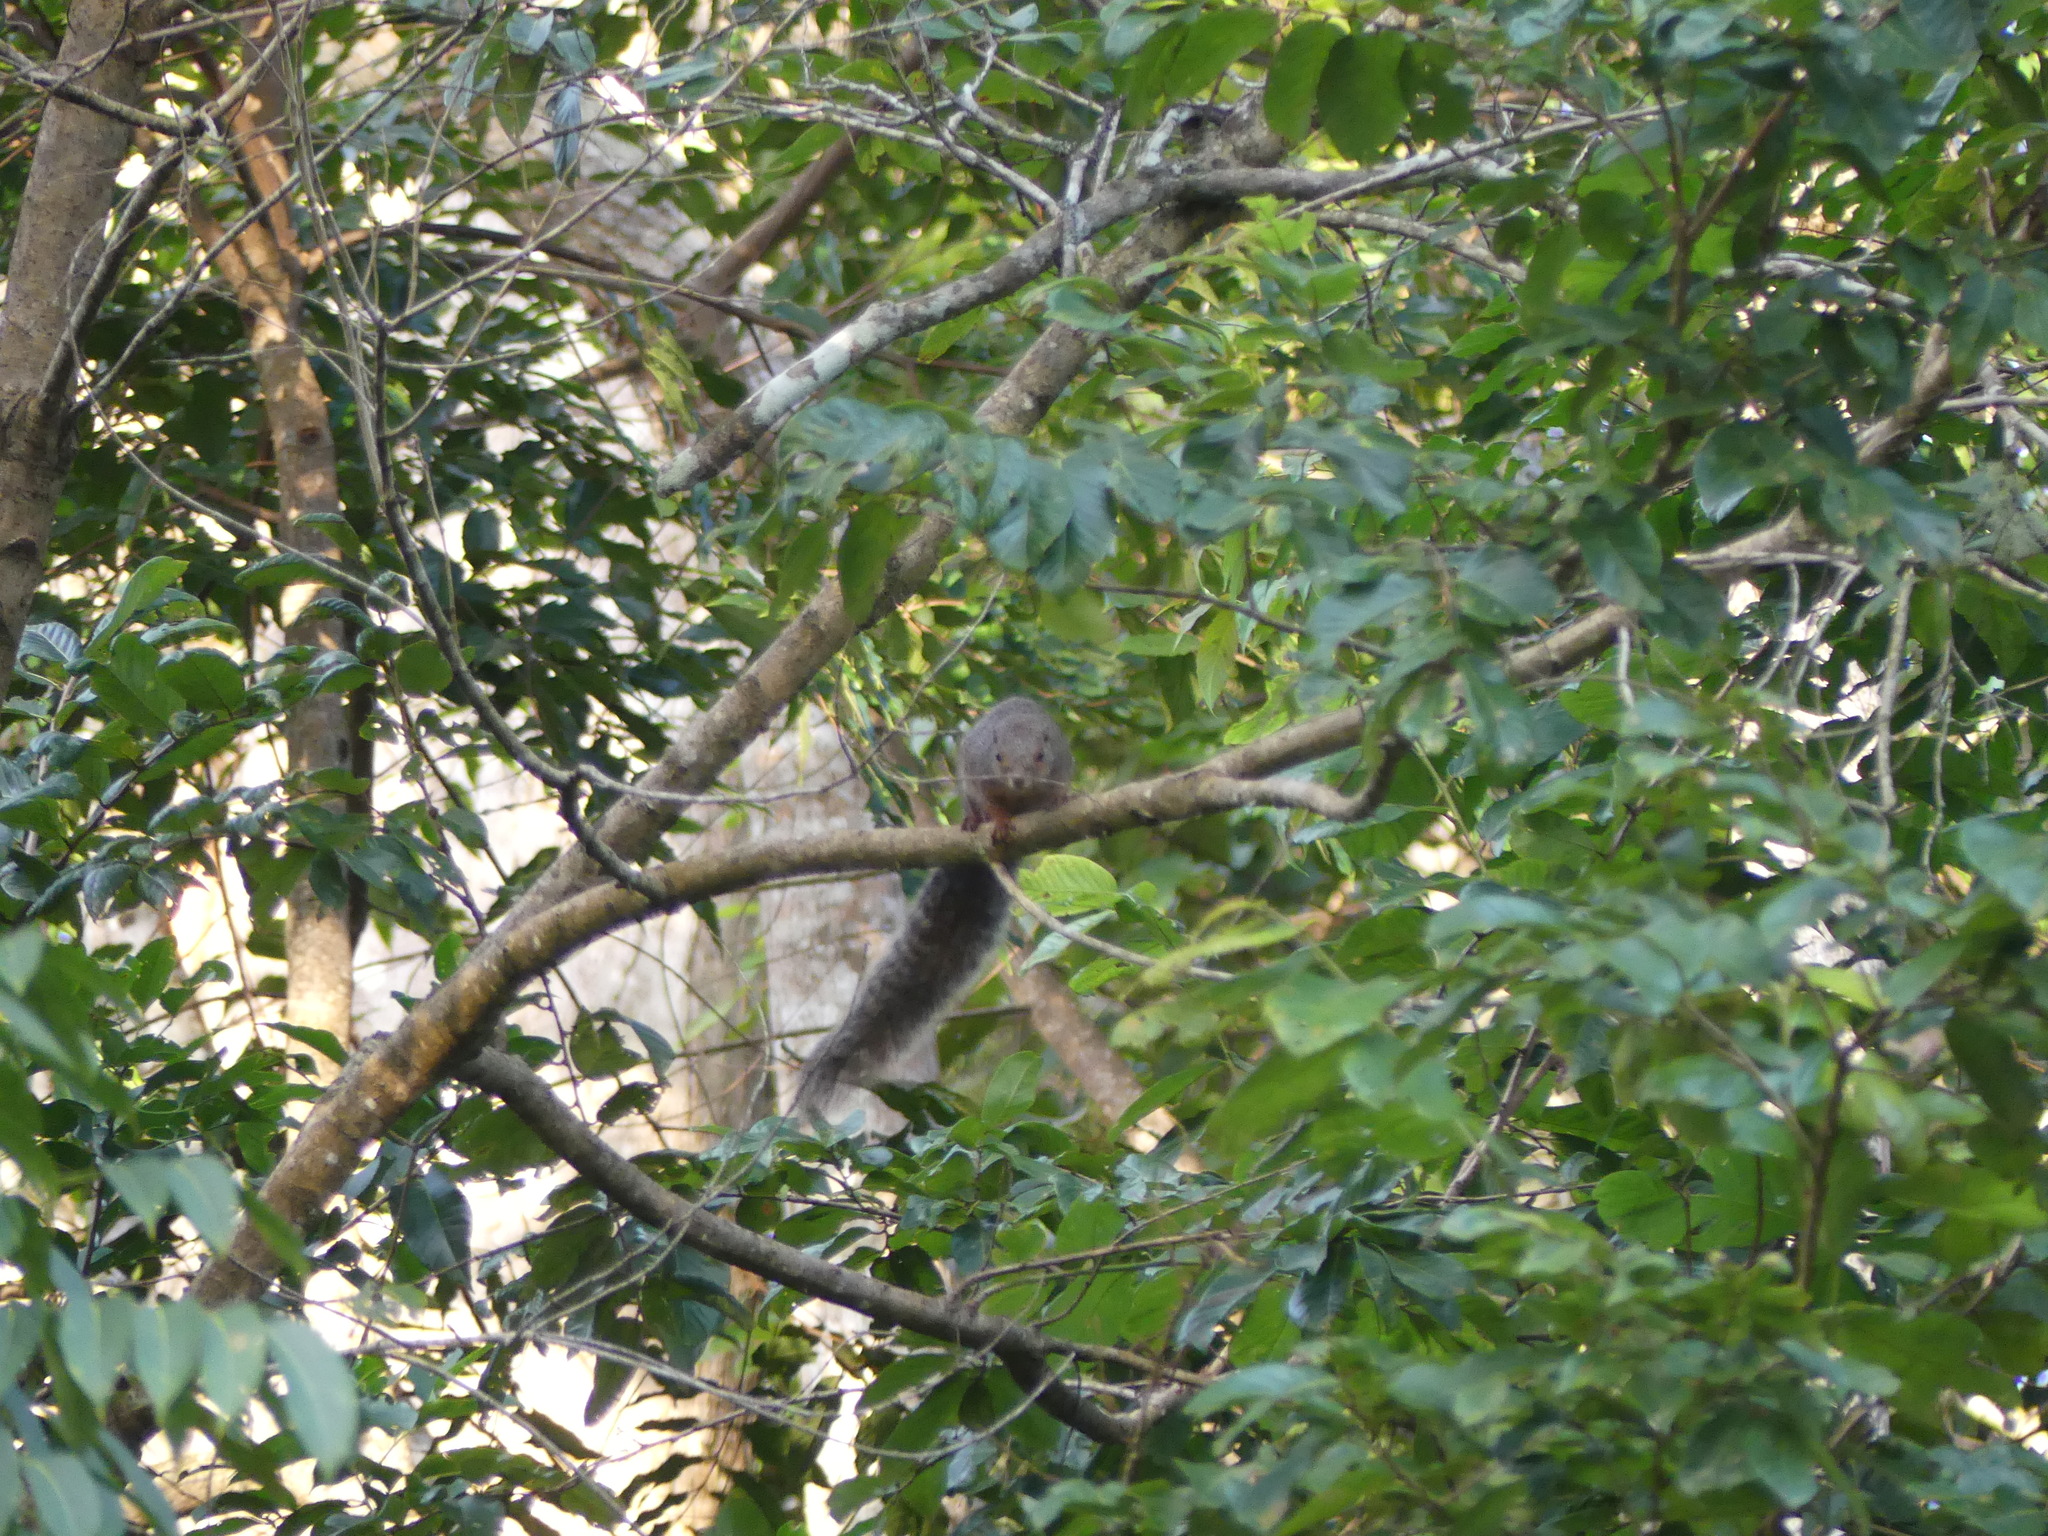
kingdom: Animalia
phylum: Chordata
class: Mammalia
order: Rodentia
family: Sciuridae
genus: Heliosciurus
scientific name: Heliosciurus undulatus
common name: Zanj sun squirrel
